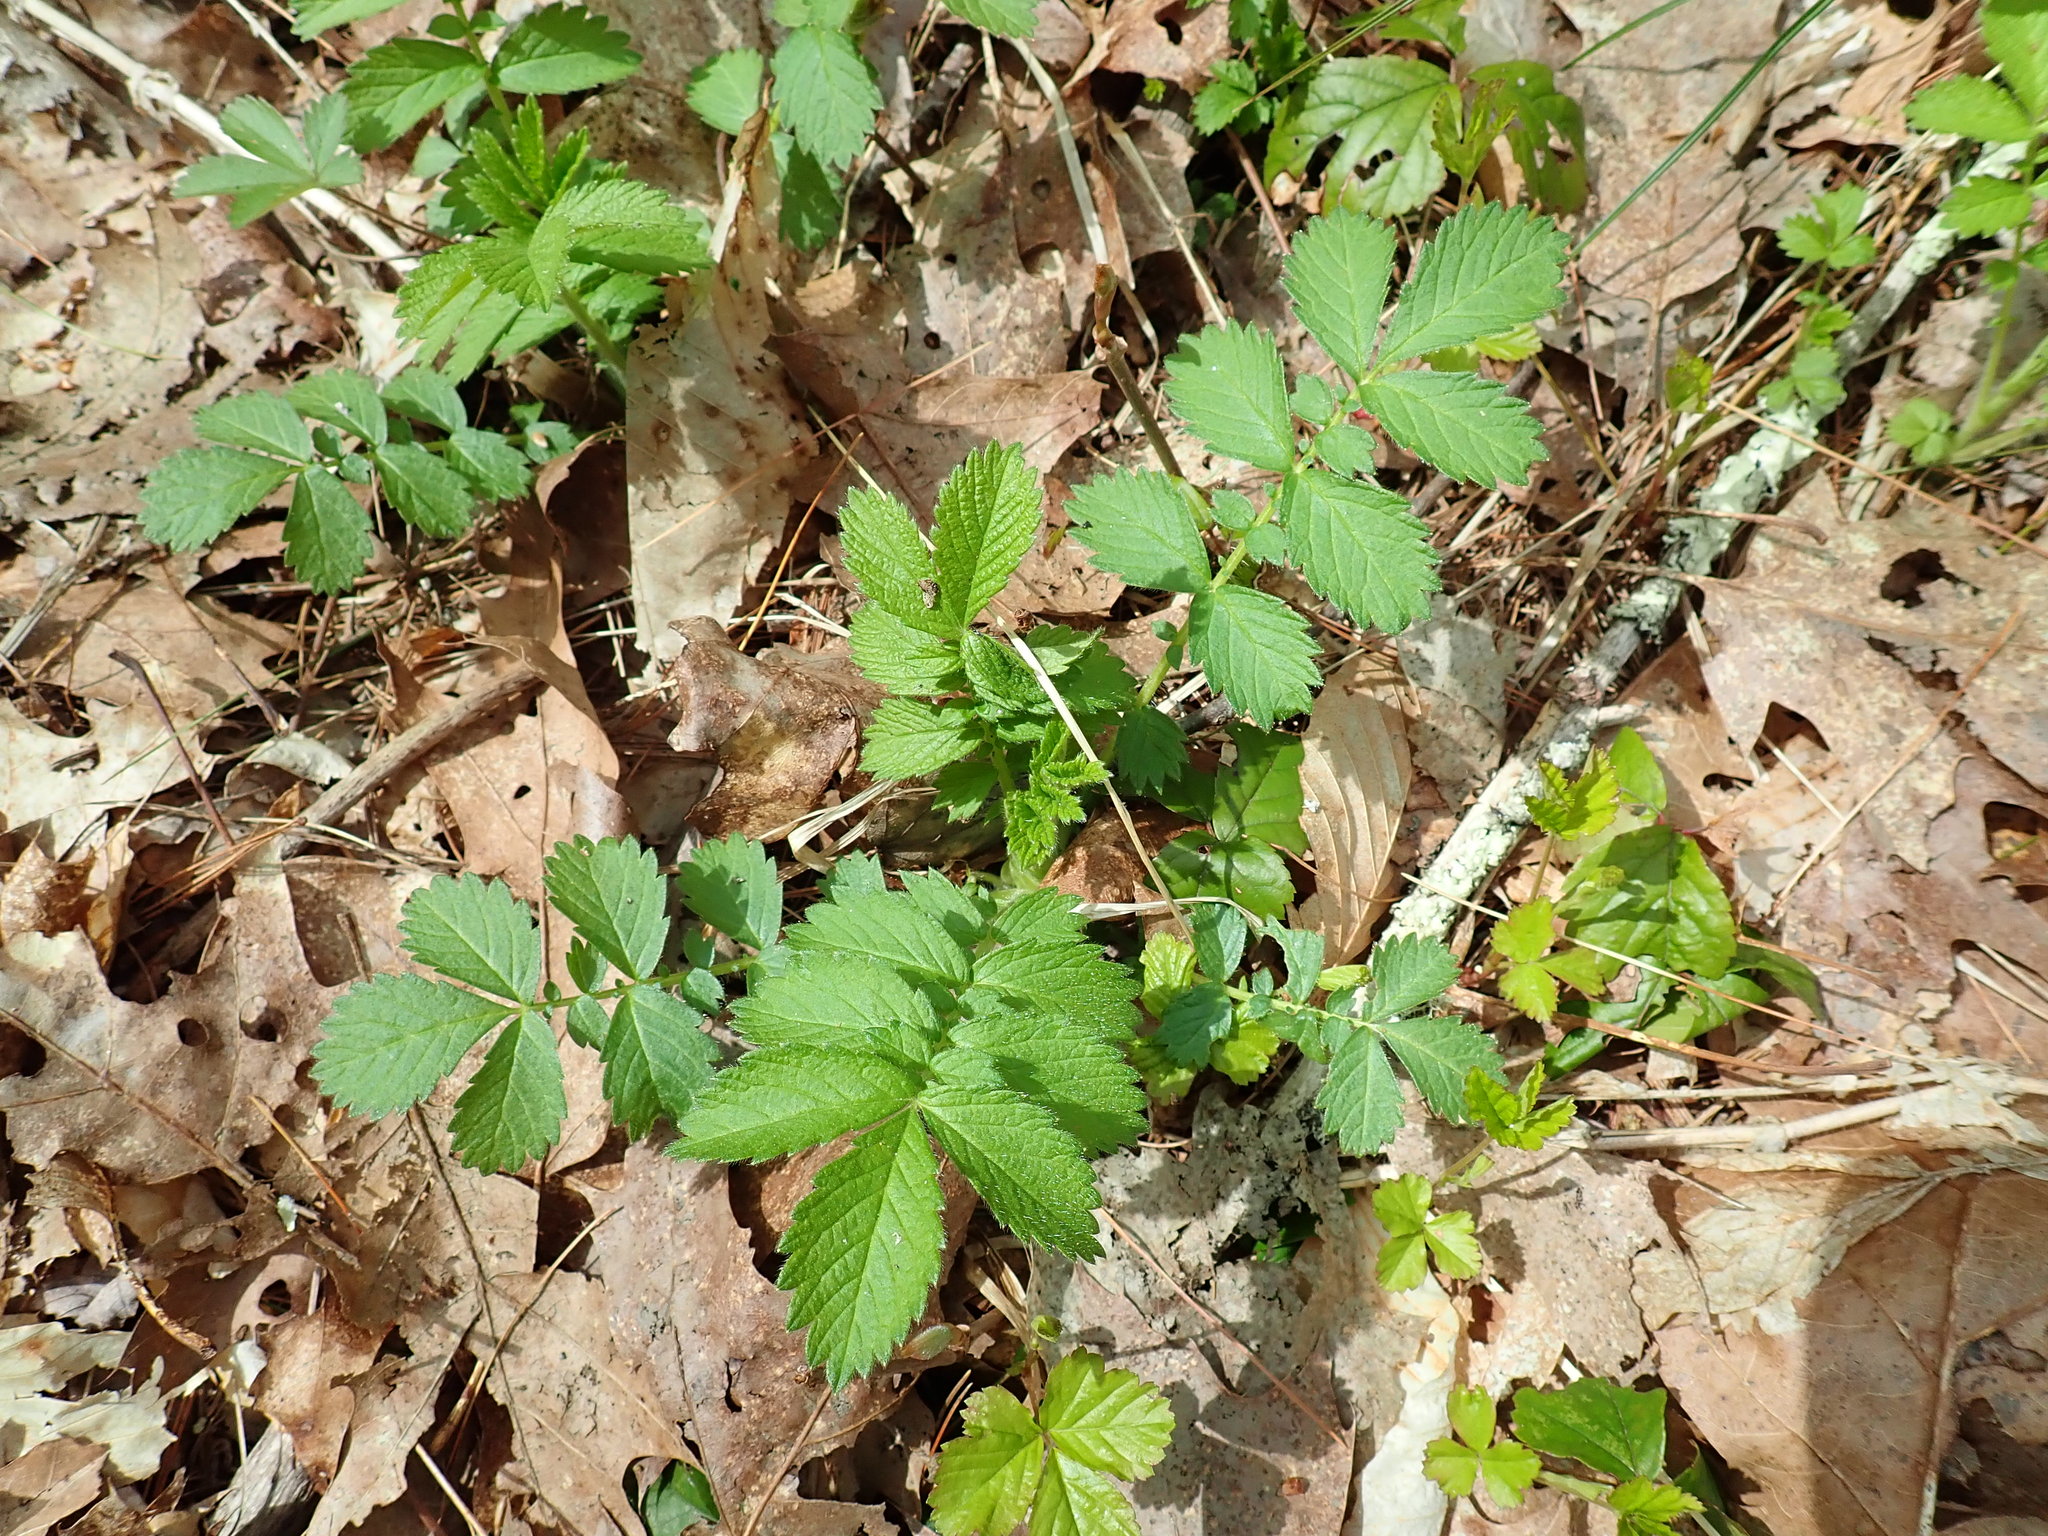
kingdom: Plantae
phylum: Tracheophyta
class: Magnoliopsida
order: Rosales
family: Rosaceae
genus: Agrimonia
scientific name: Agrimonia
